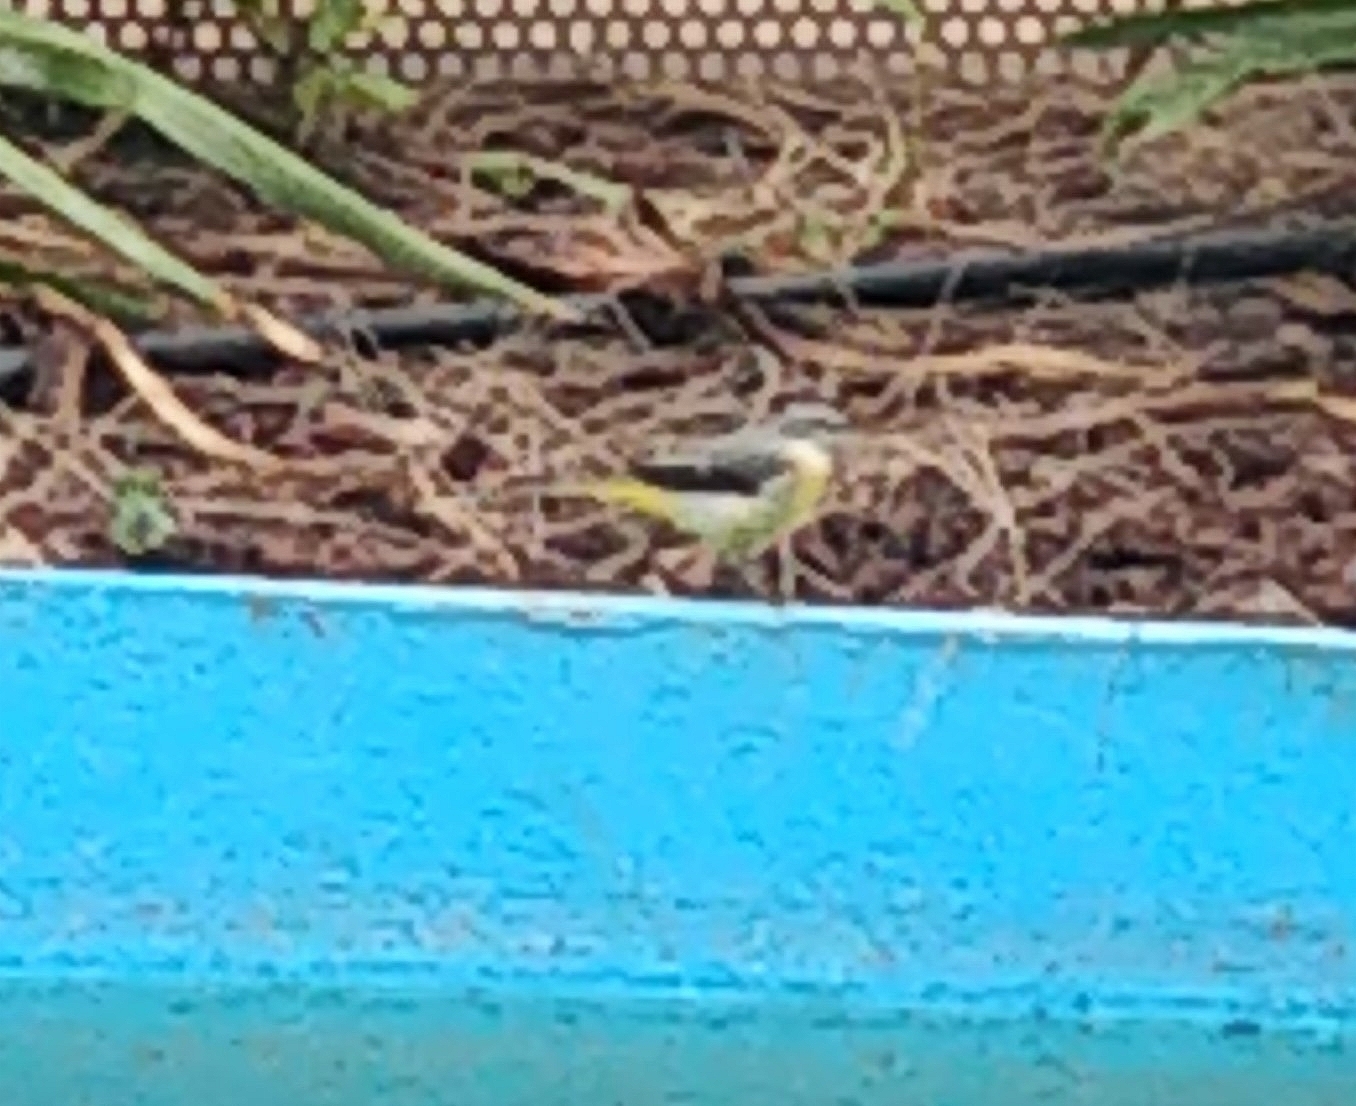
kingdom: Animalia
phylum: Chordata
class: Aves
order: Passeriformes
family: Motacillidae
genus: Motacilla
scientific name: Motacilla cinerea
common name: Grey wagtail
